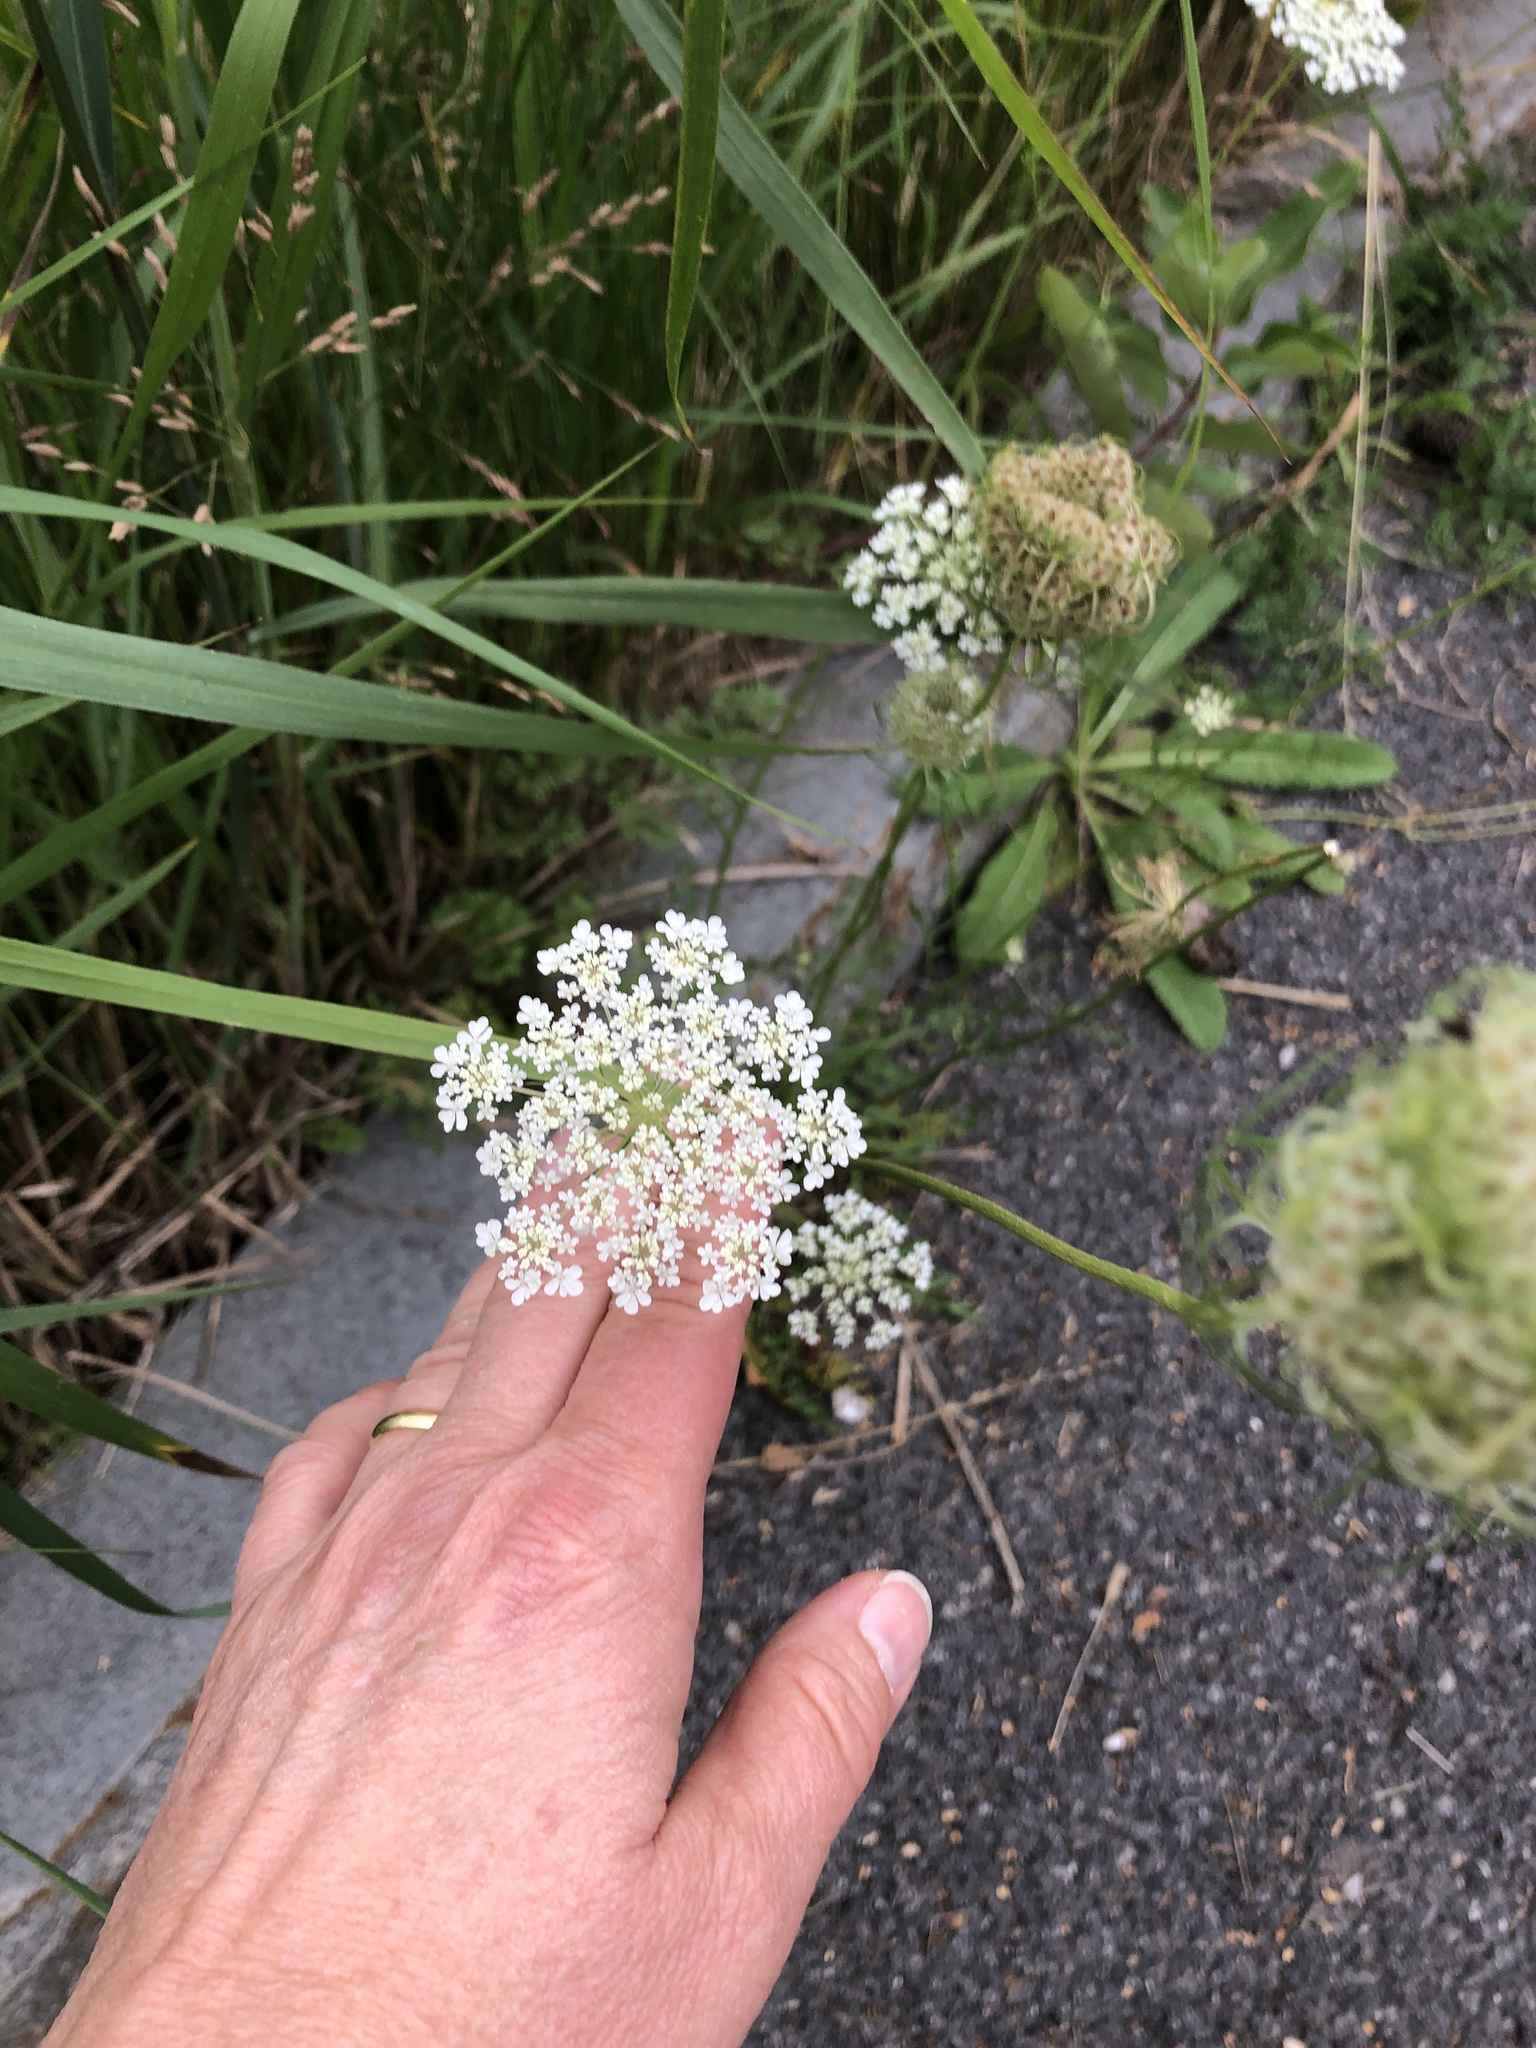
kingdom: Plantae
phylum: Tracheophyta
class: Magnoliopsida
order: Apiales
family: Apiaceae
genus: Daucus
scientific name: Daucus carota
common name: Wild carrot
